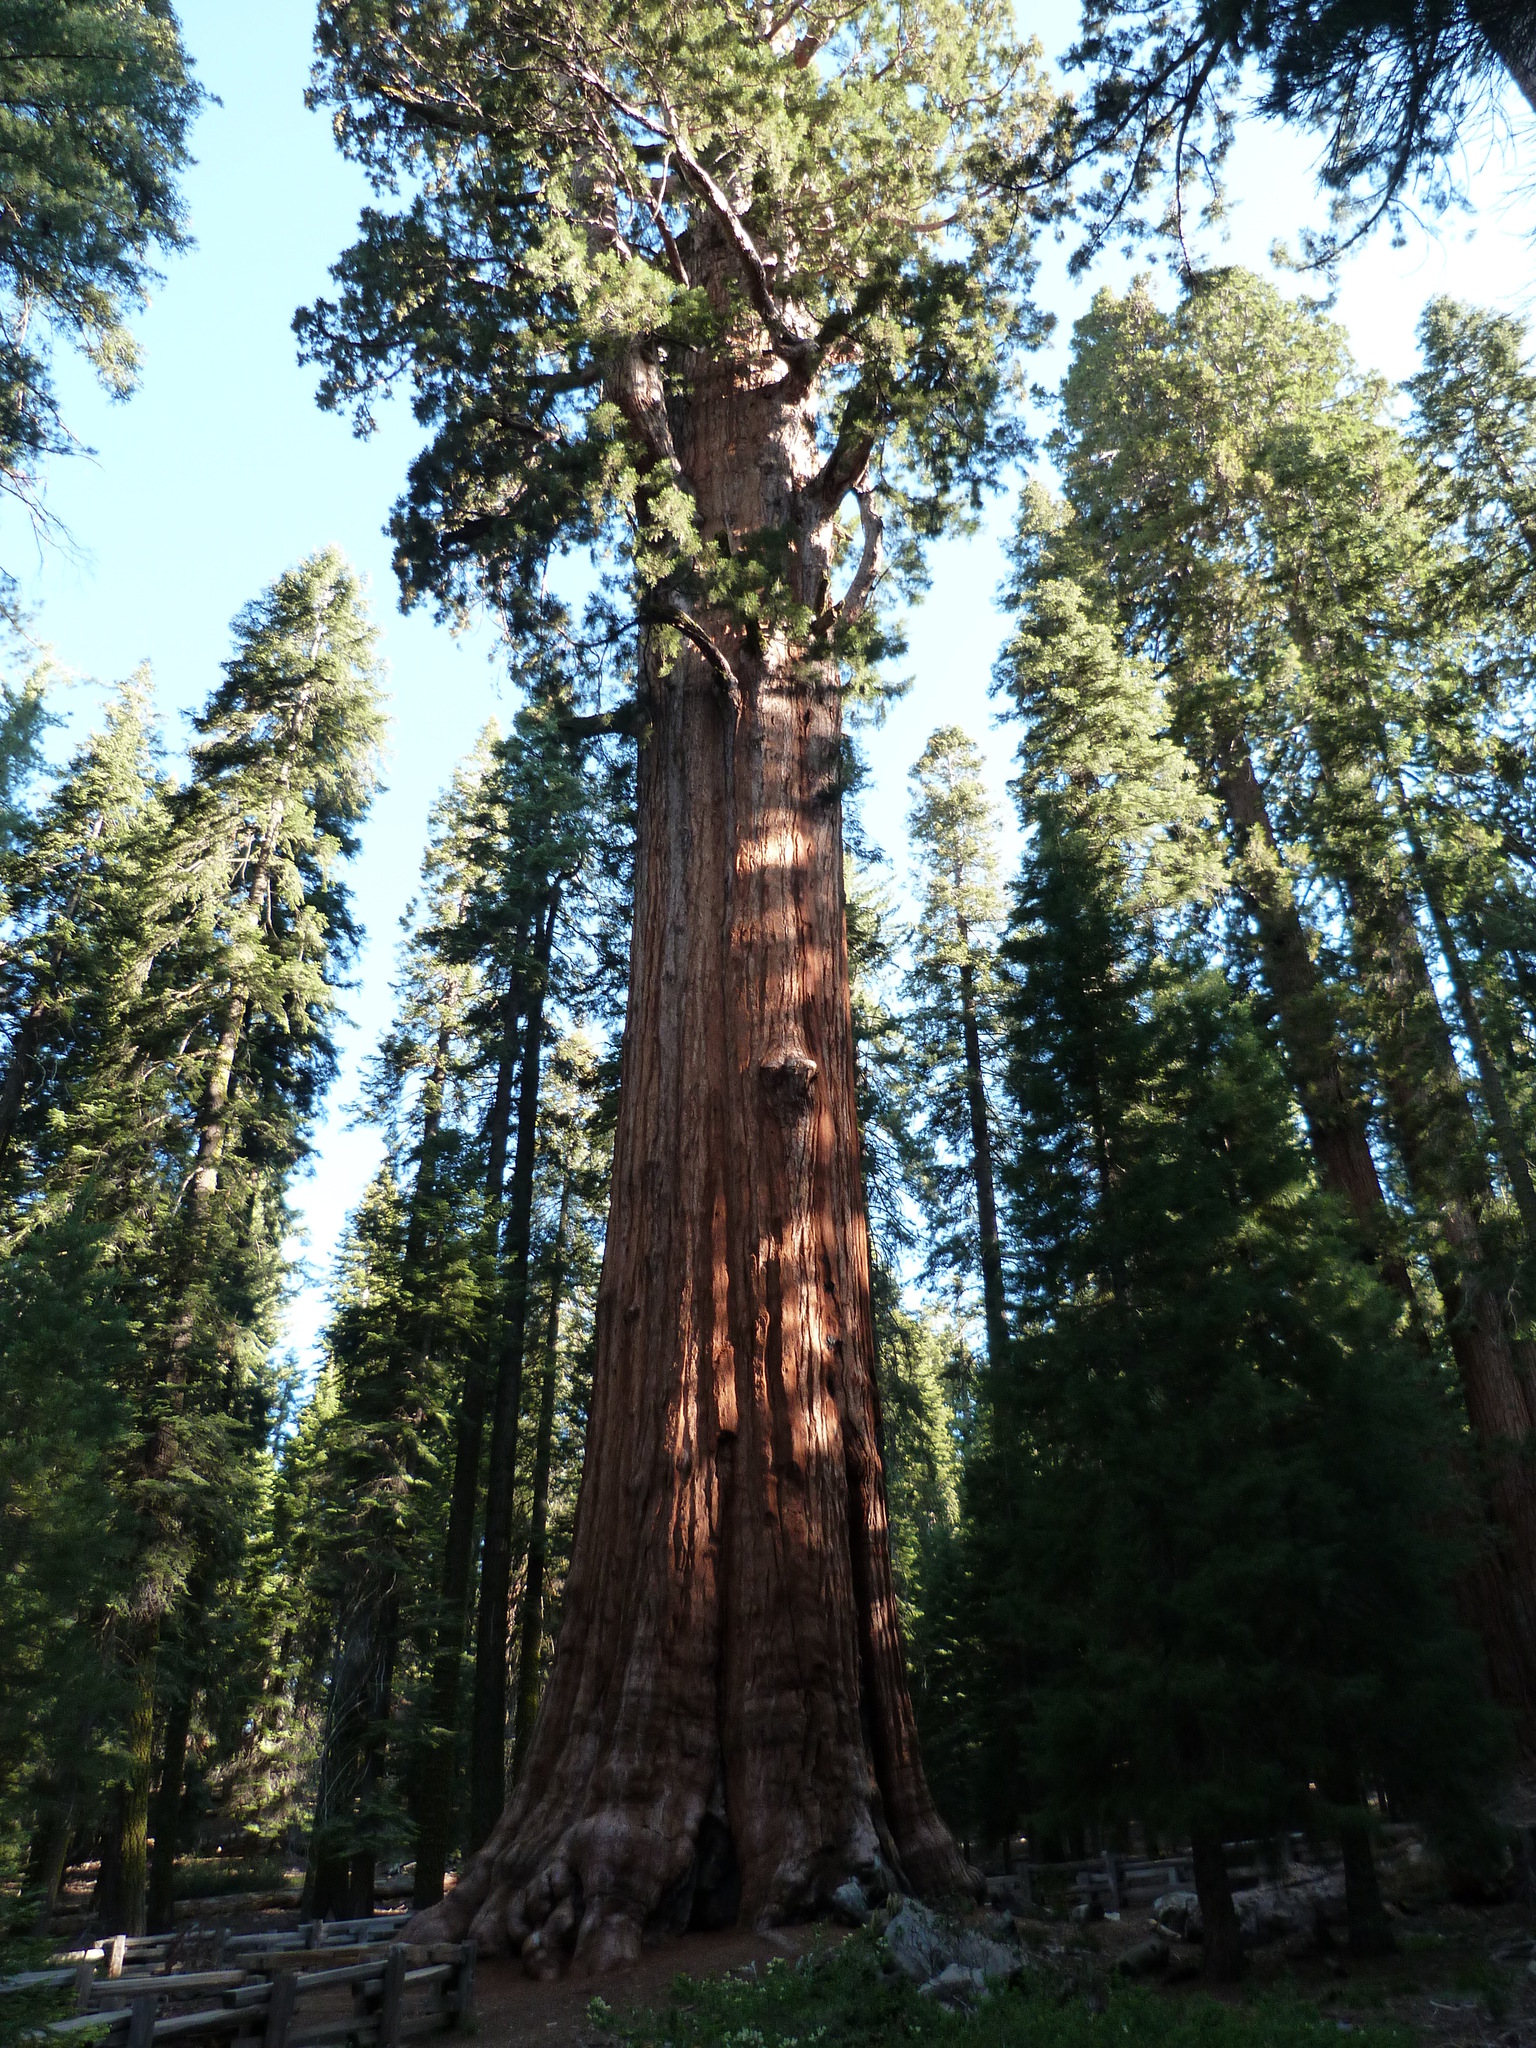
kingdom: Plantae
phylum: Tracheophyta
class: Pinopsida
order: Pinales
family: Cupressaceae
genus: Sequoiadendron
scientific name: Sequoiadendron giganteum
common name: Wellingtonia
